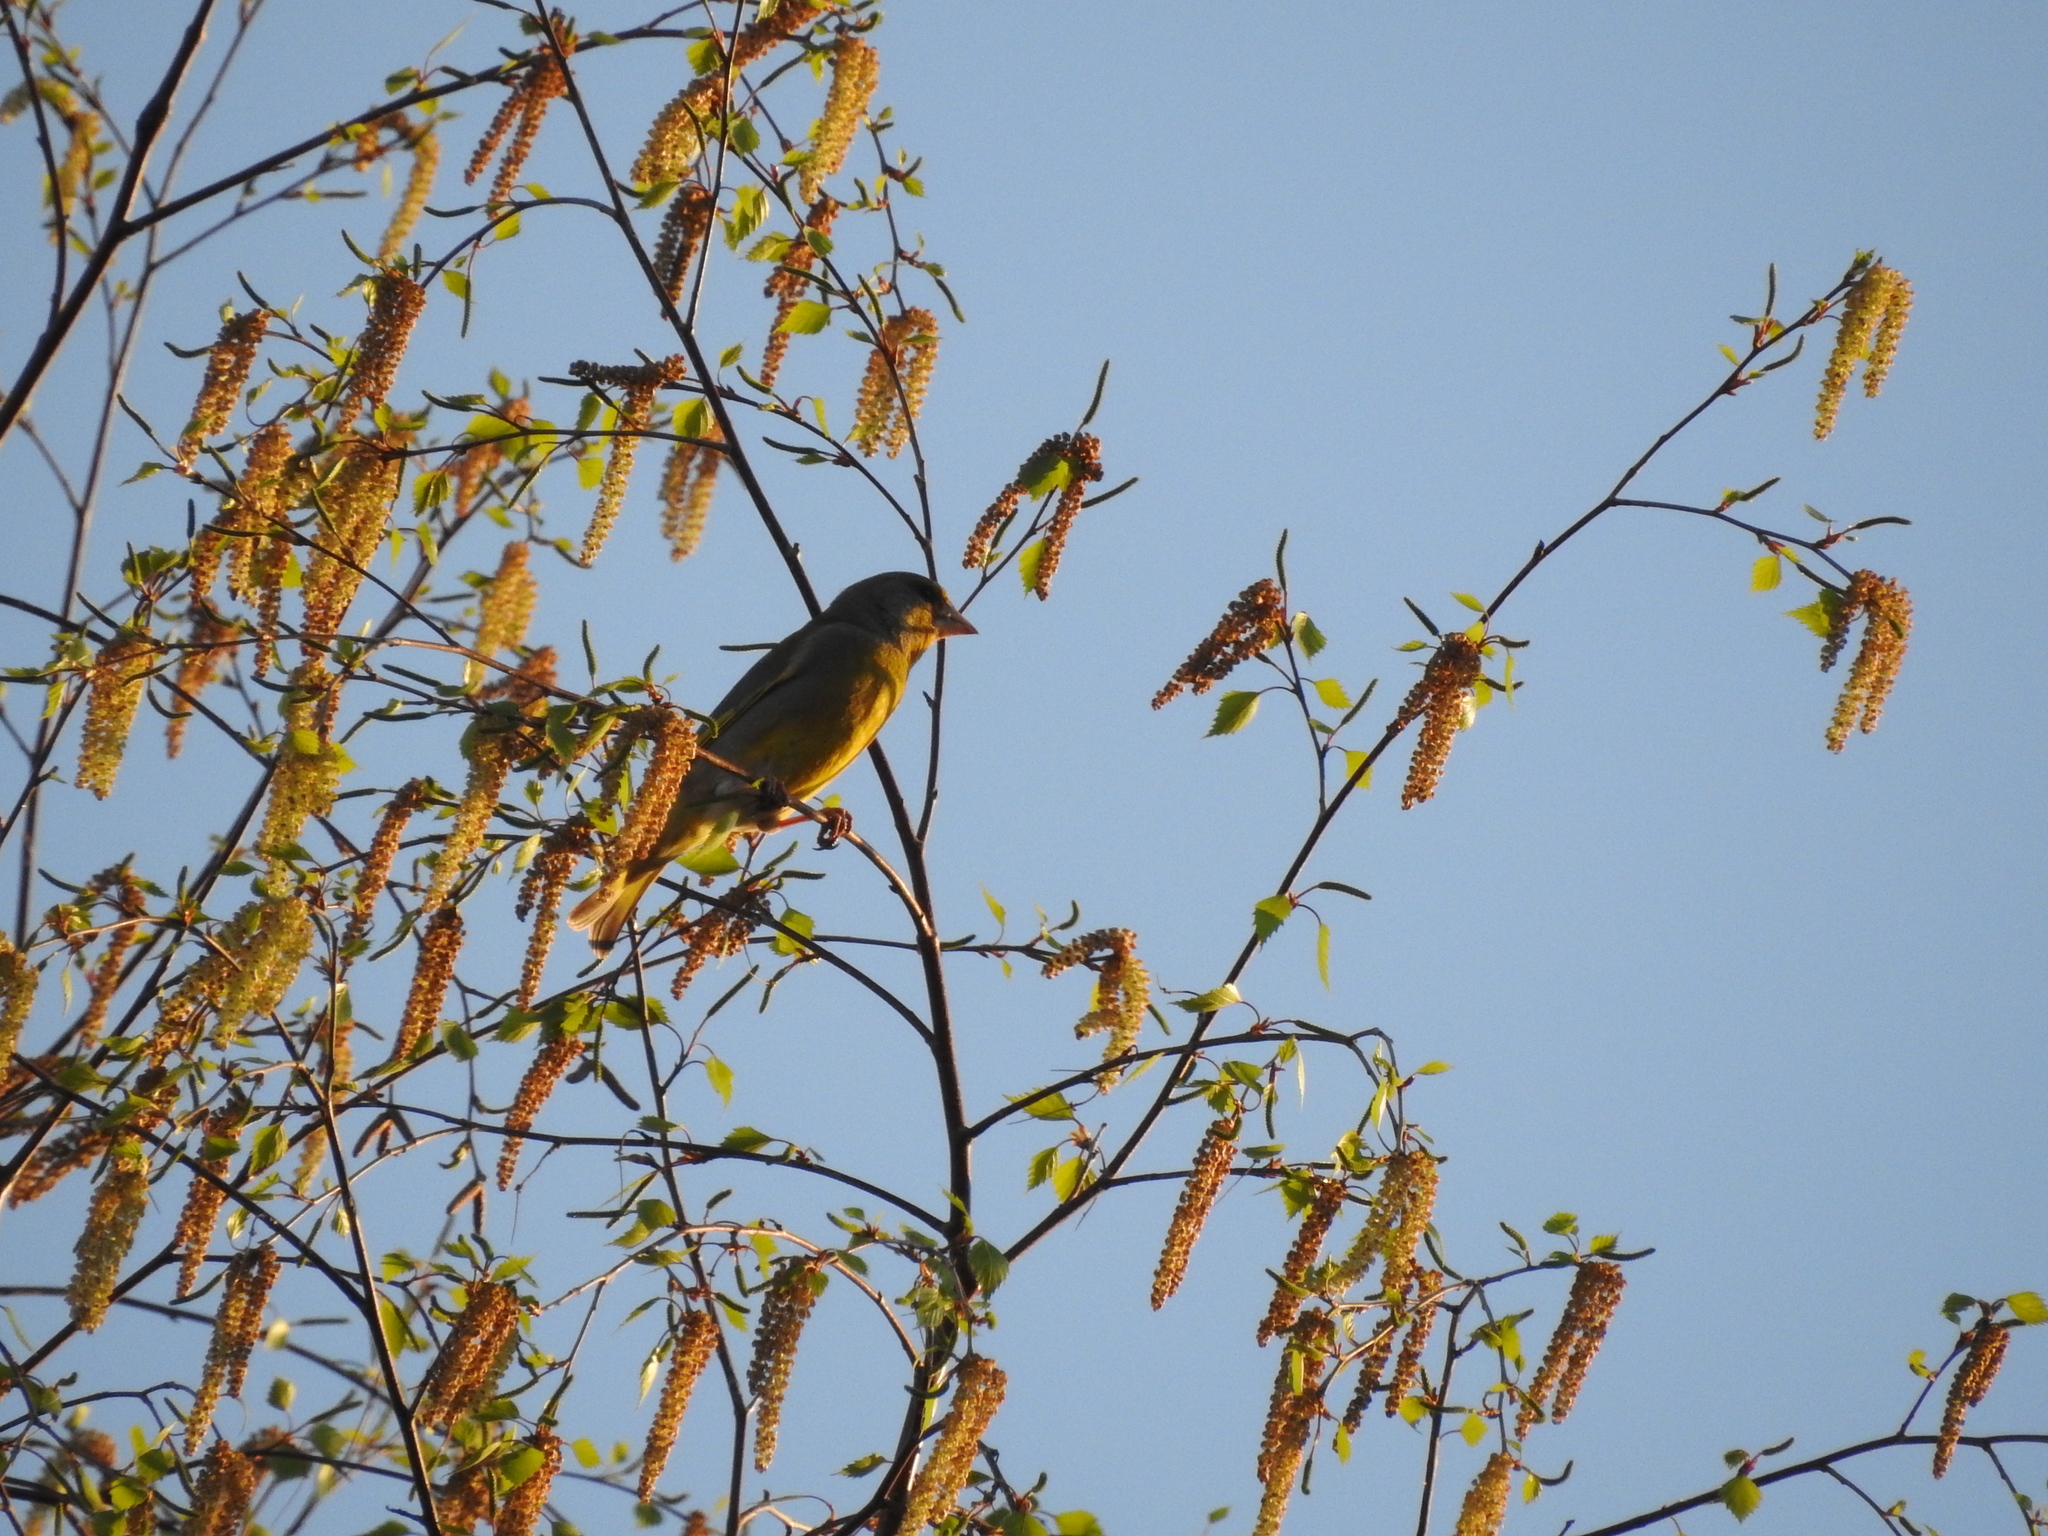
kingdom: Plantae
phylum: Tracheophyta
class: Liliopsida
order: Poales
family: Poaceae
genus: Chloris
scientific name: Chloris chloris
